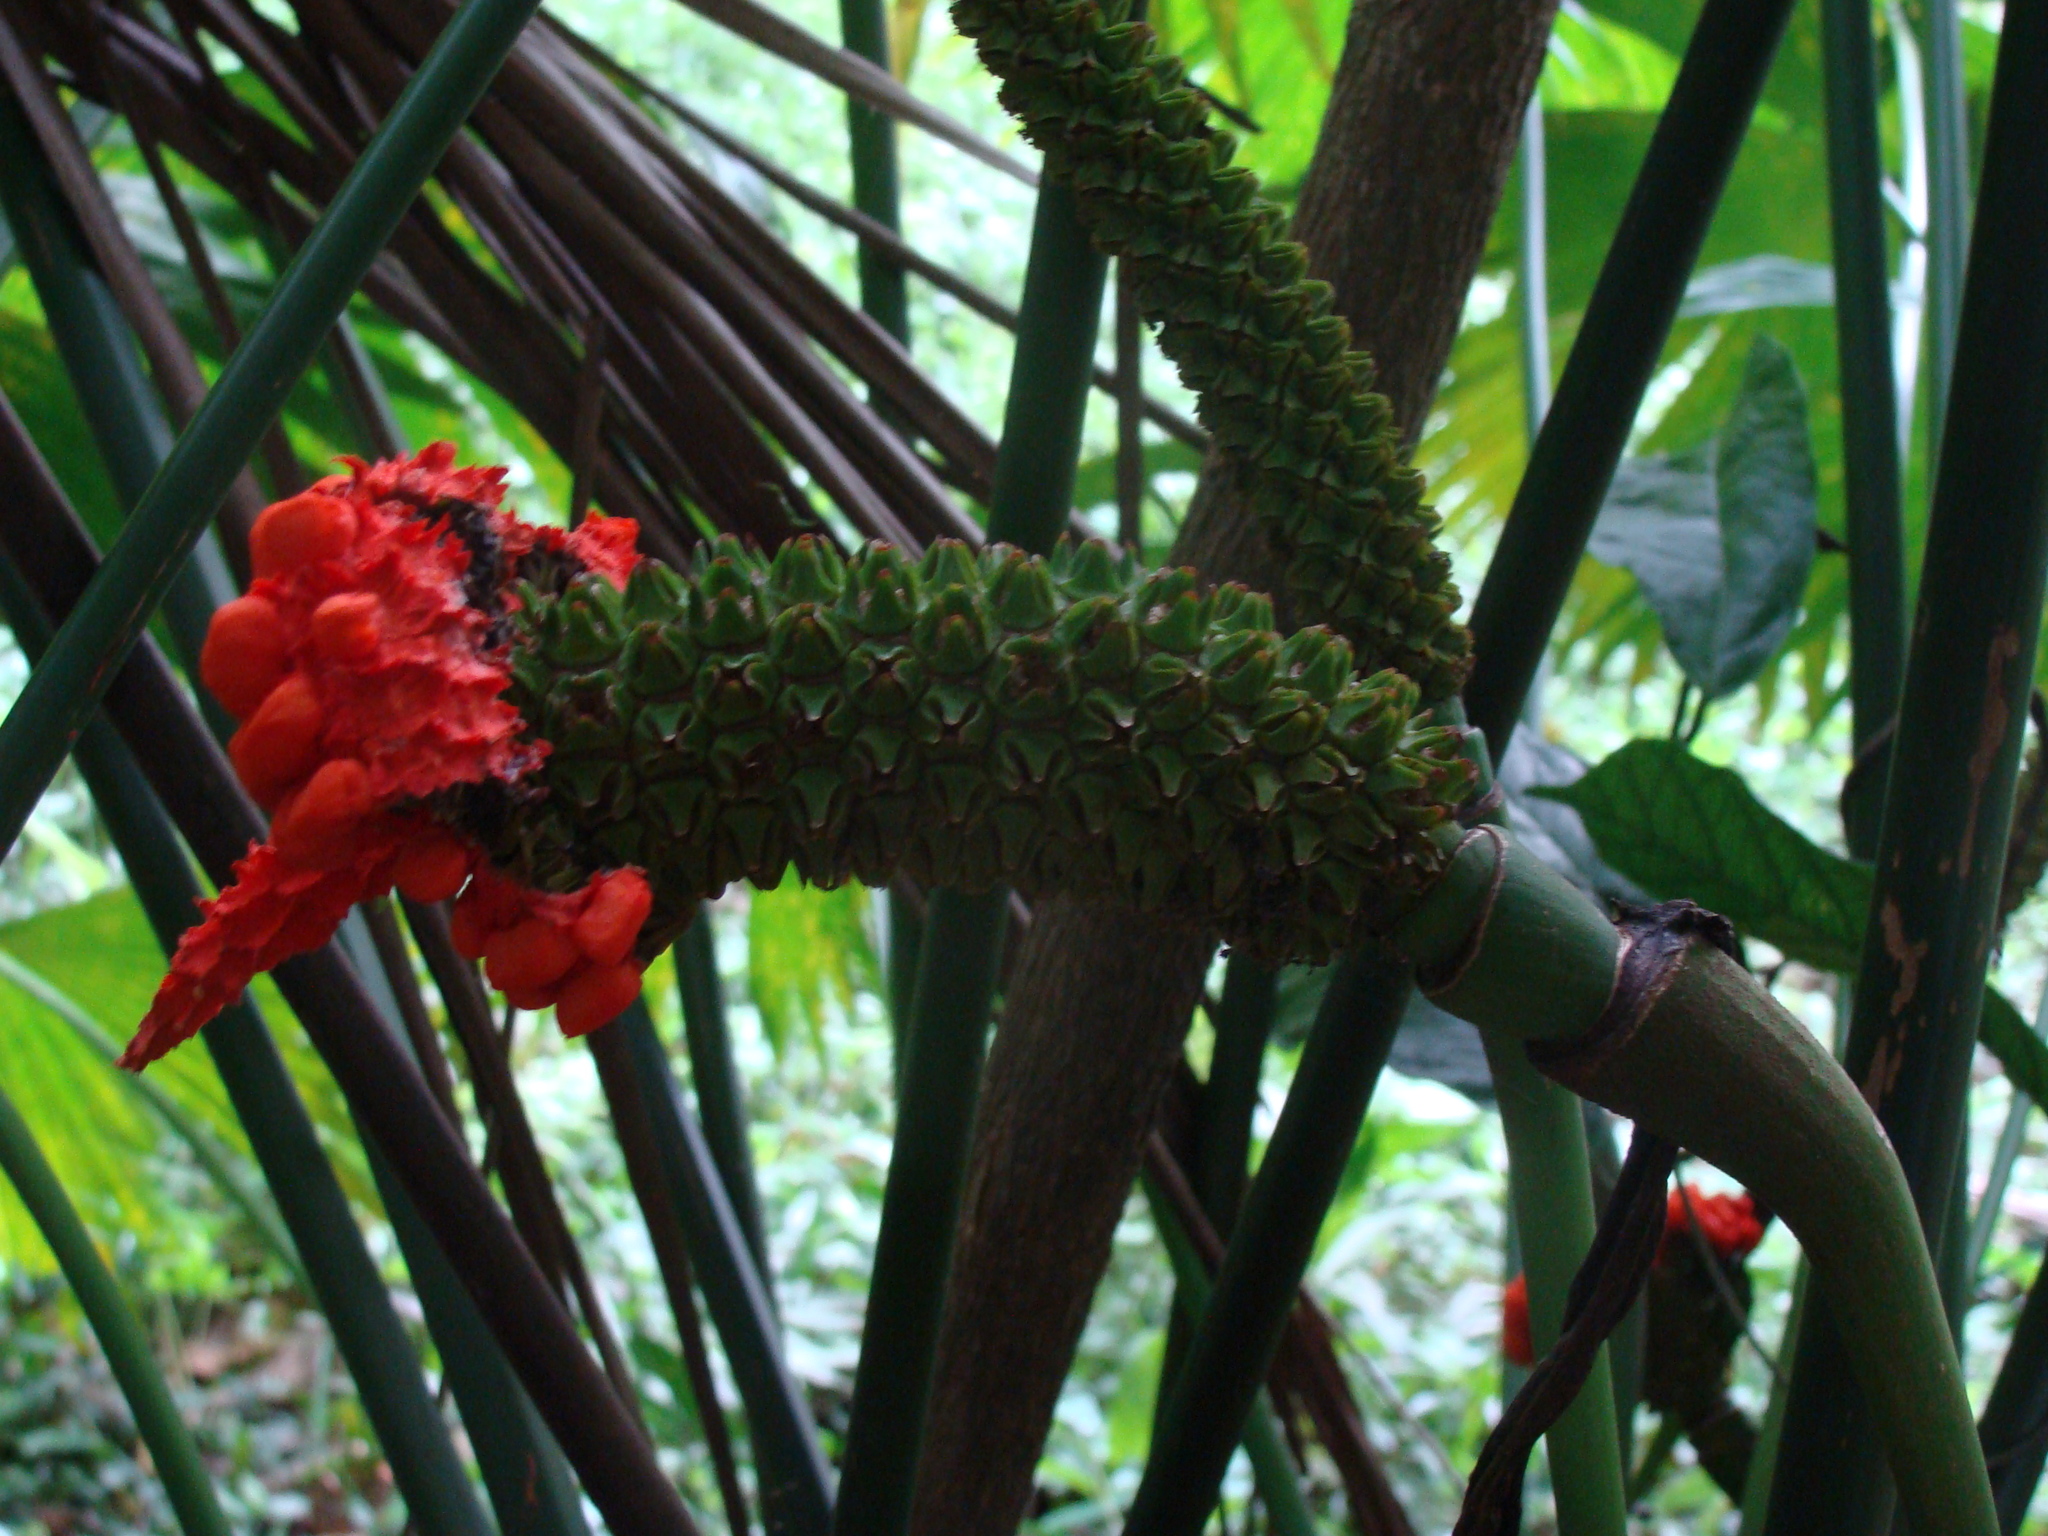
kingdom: Plantae
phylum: Tracheophyta
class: Liliopsida
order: Pandanales
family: Cyclanthaceae
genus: Carludovica
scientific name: Carludovica palmata
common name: Panama hat plant
